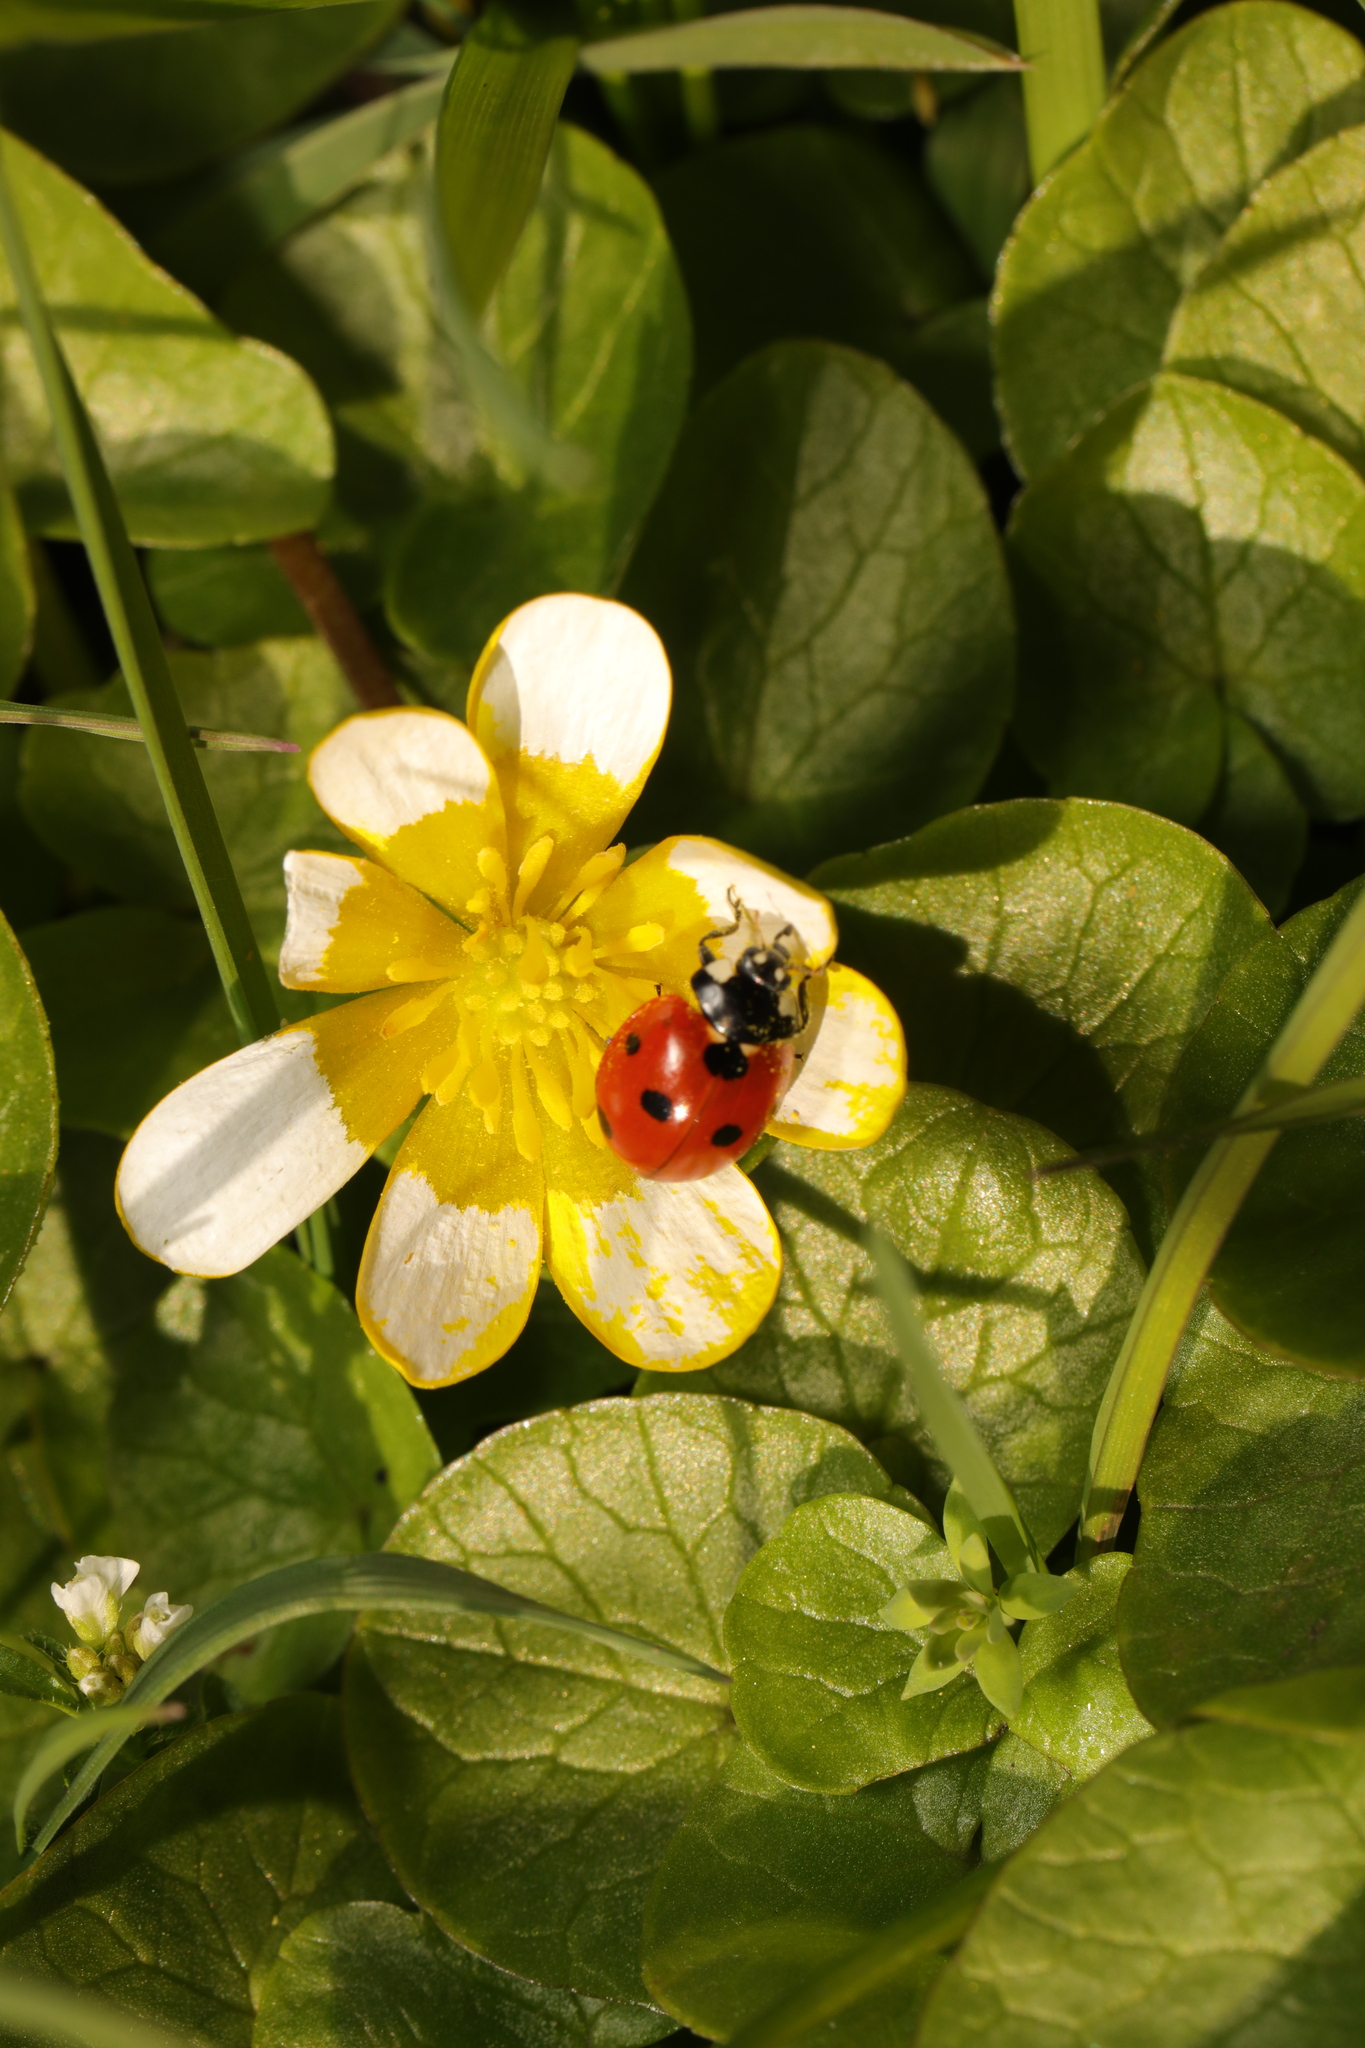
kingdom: Animalia
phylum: Arthropoda
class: Insecta
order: Coleoptera
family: Coccinellidae
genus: Coccinella
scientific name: Coccinella septempunctata
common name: Sevenspotted lady beetle
